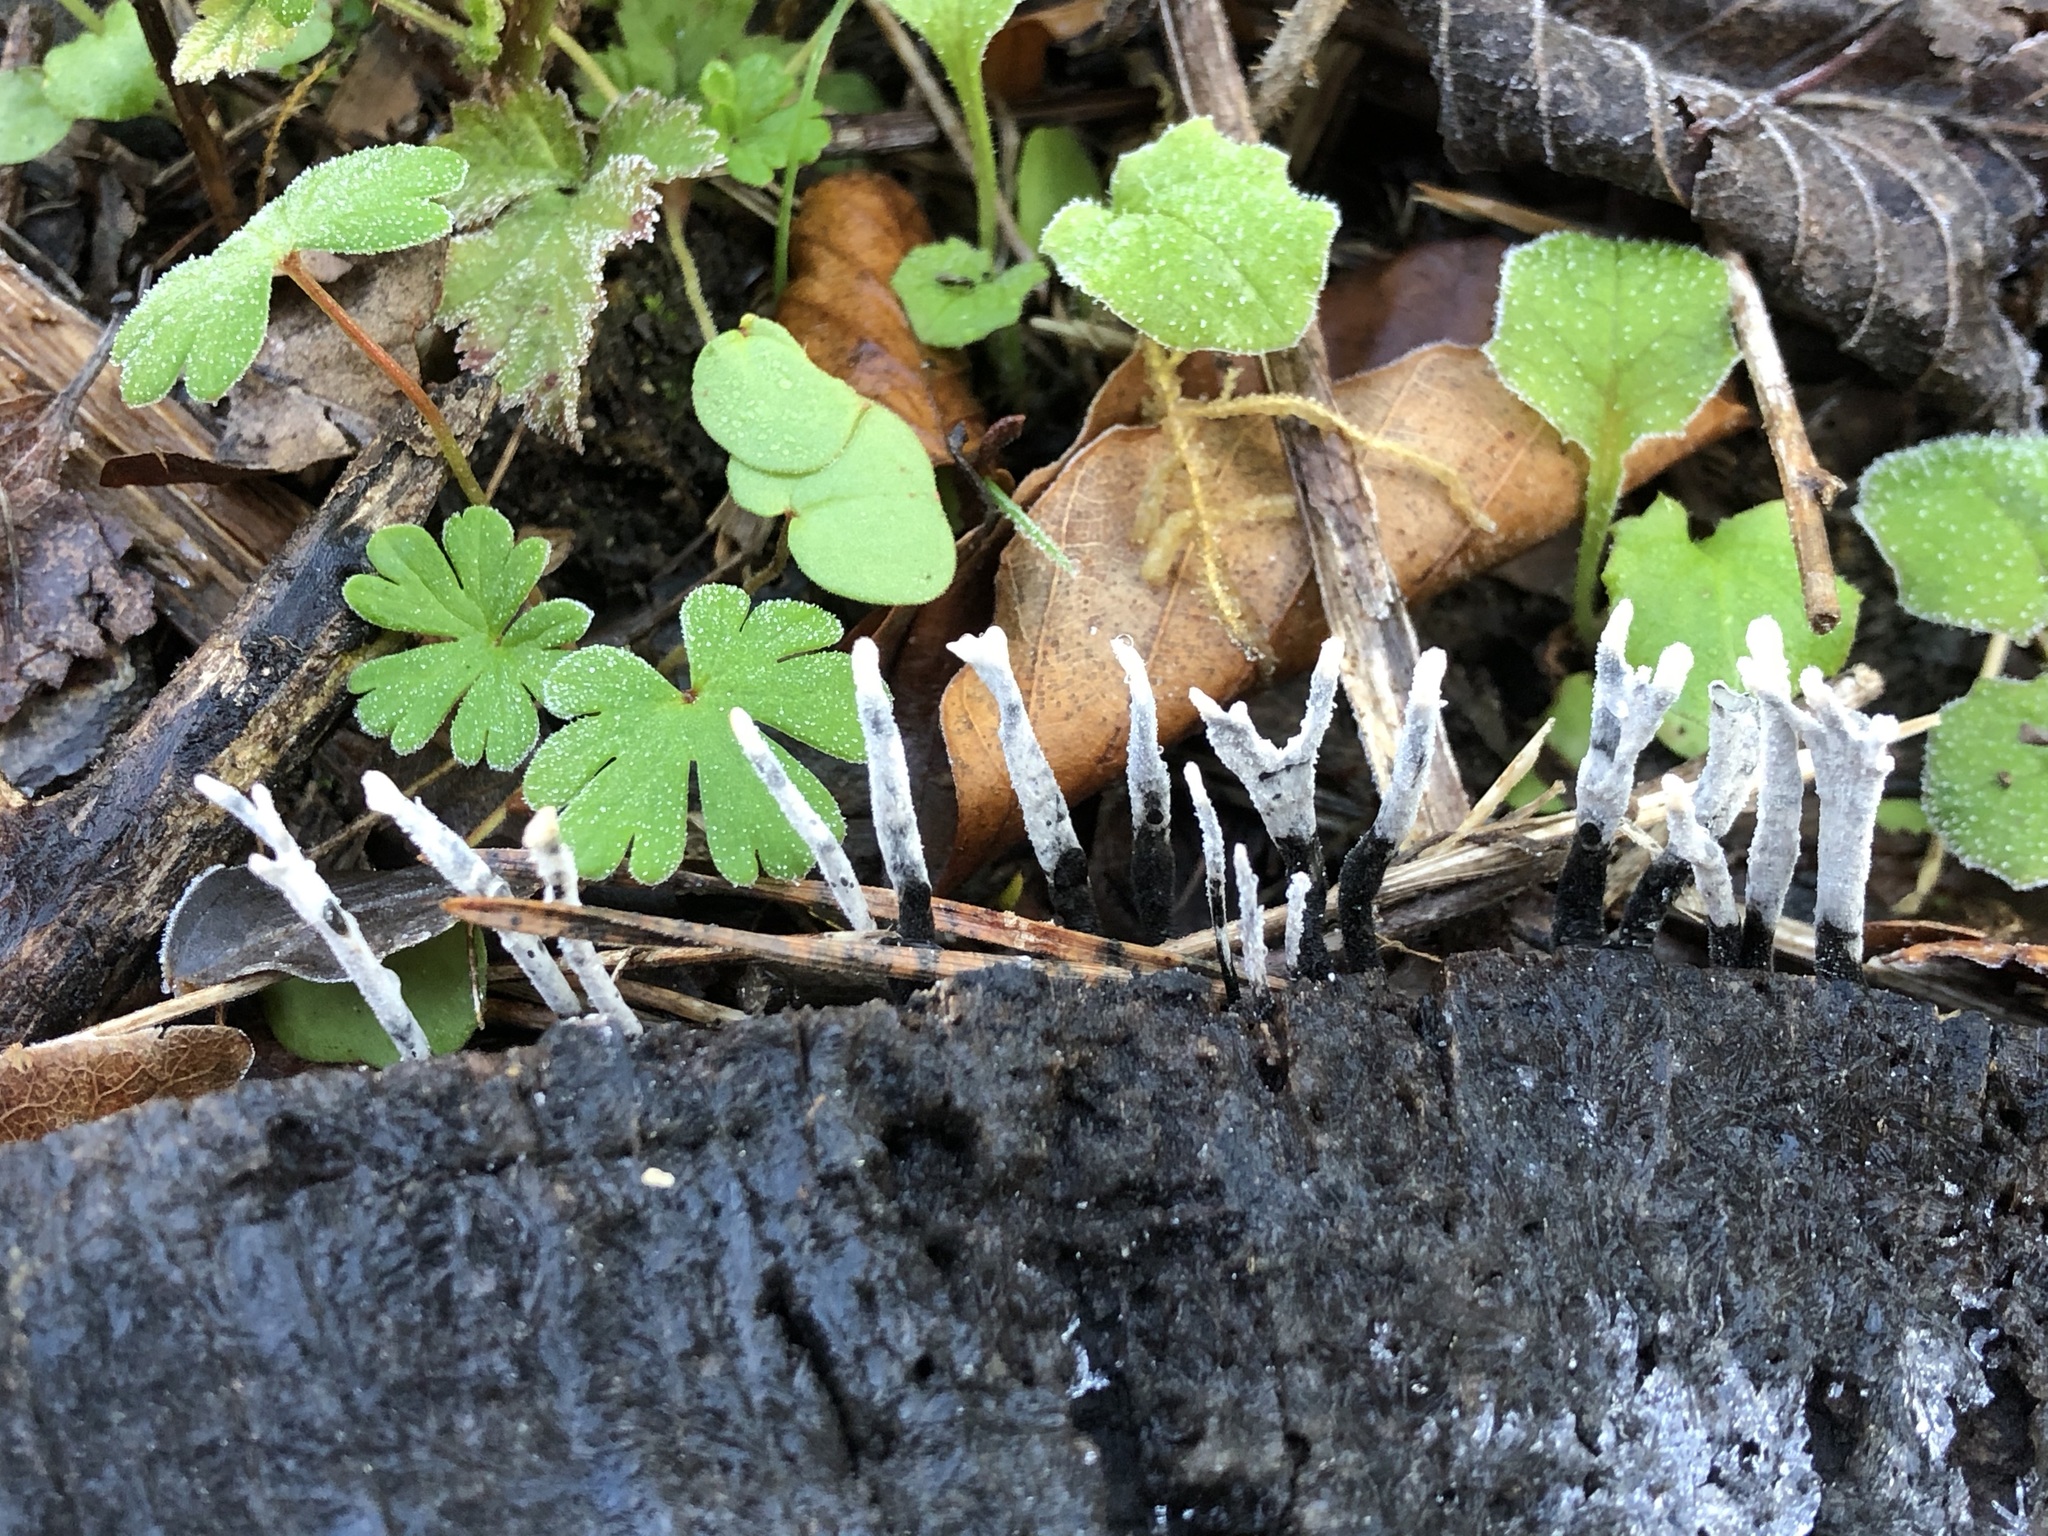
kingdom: Fungi
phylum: Ascomycota
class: Sordariomycetes
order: Xylariales
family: Xylariaceae
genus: Xylaria
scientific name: Xylaria hypoxylon
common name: Candle-snuff fungus
